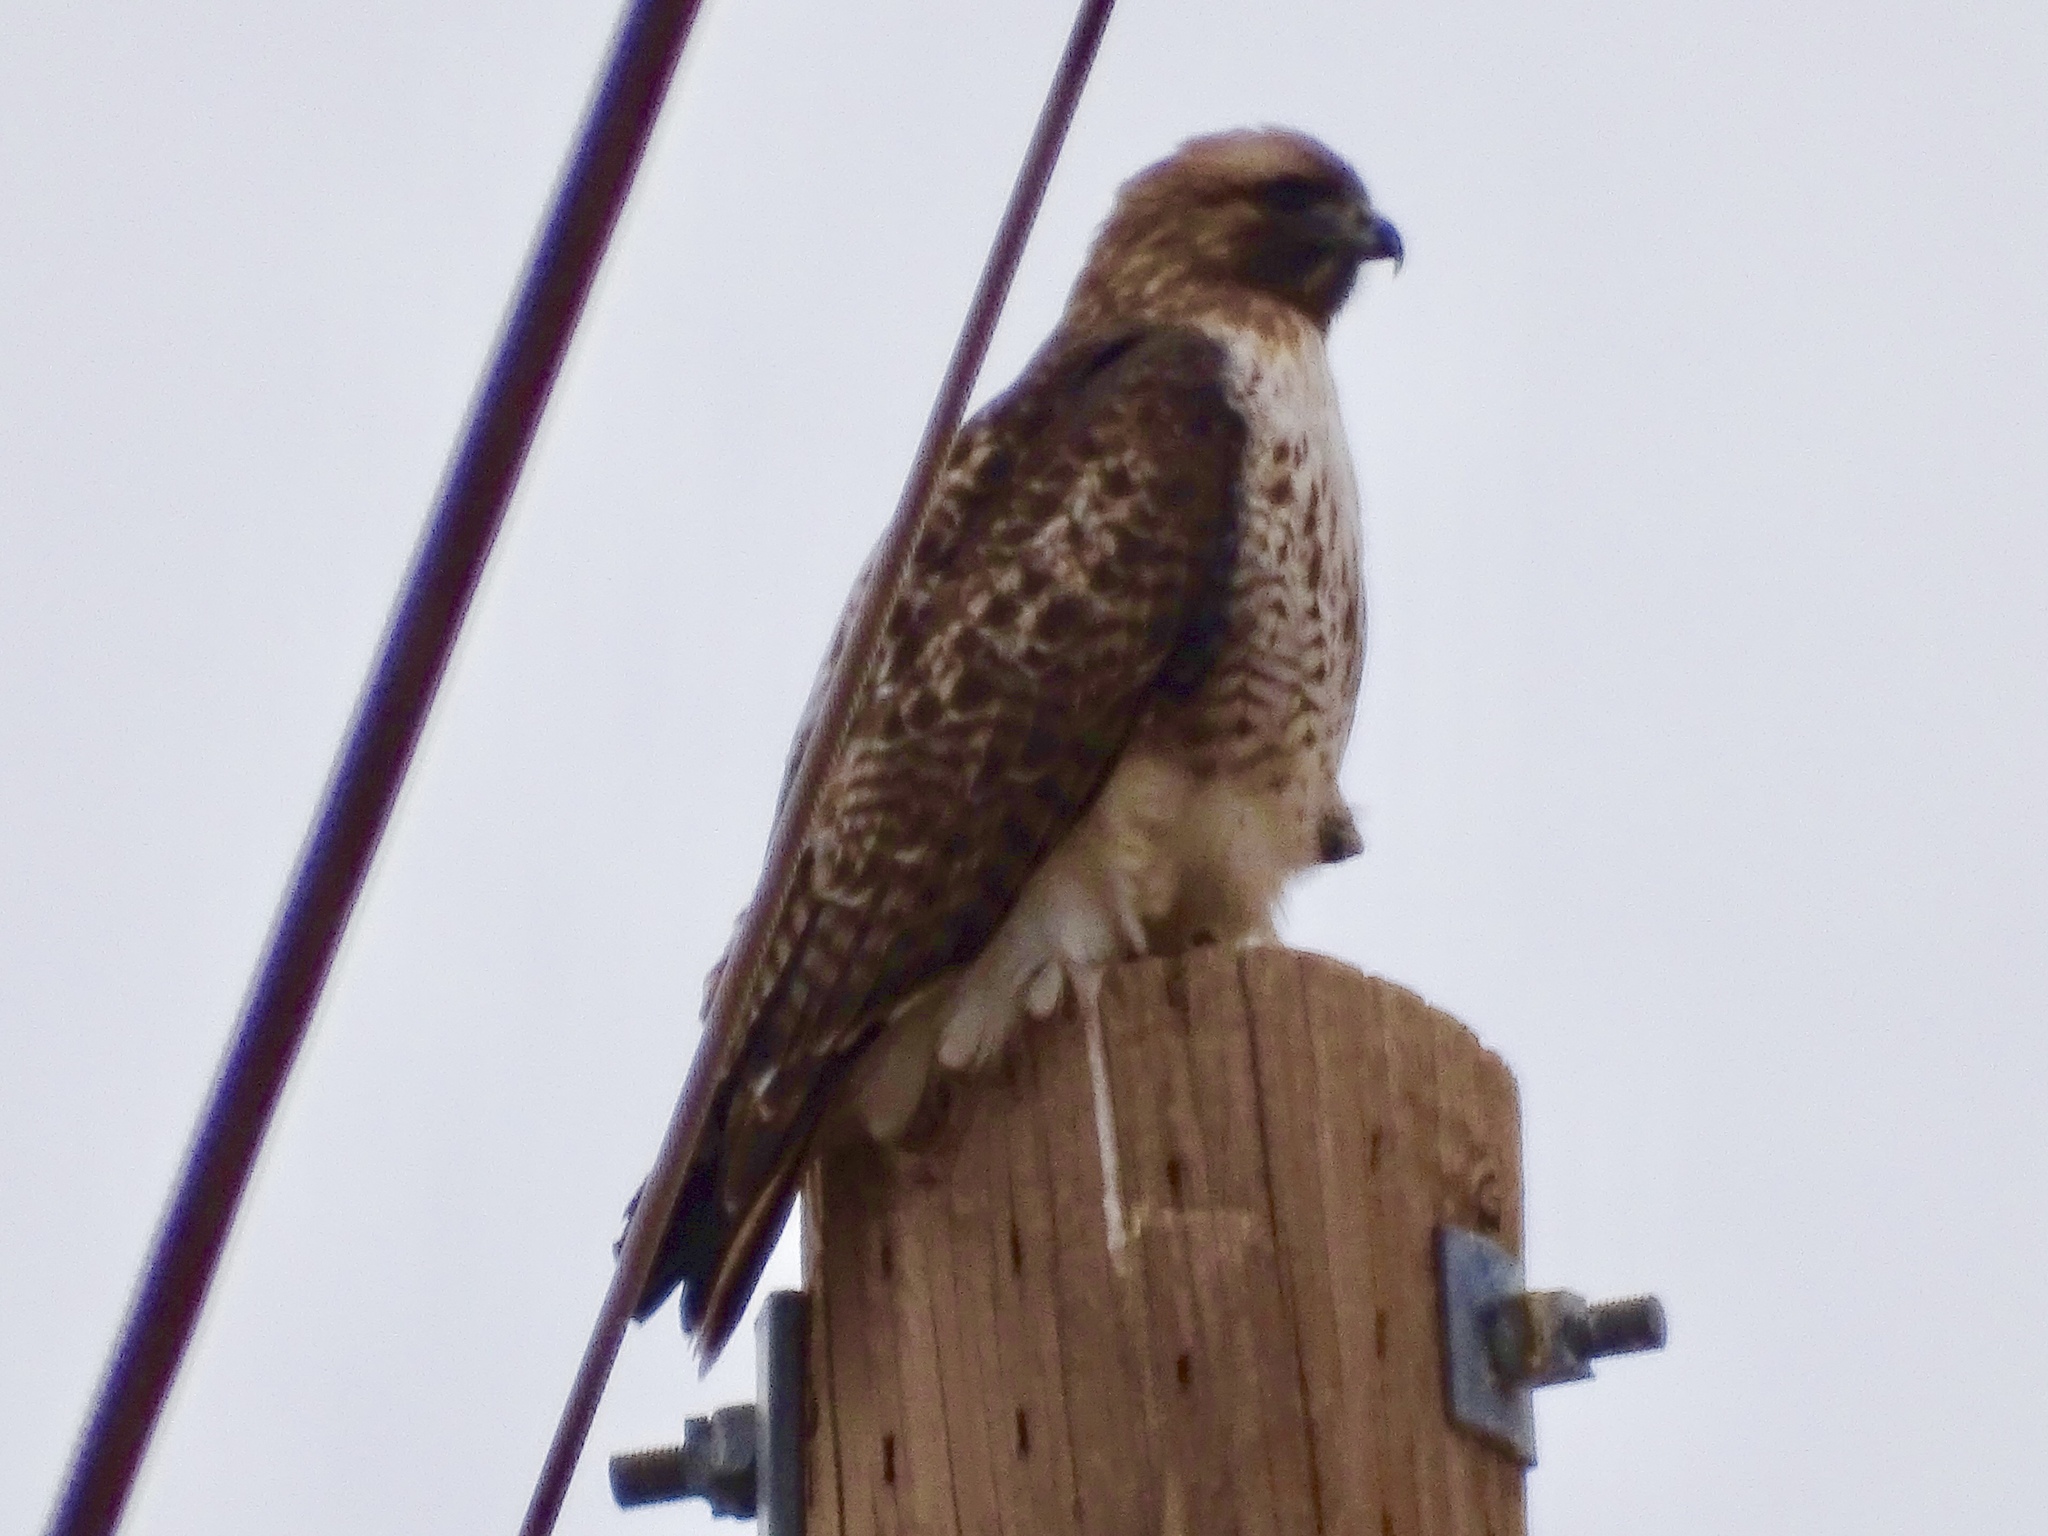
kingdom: Animalia
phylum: Chordata
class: Aves
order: Accipitriformes
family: Accipitridae
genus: Buteo
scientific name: Buteo jamaicensis
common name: Red-tailed hawk
